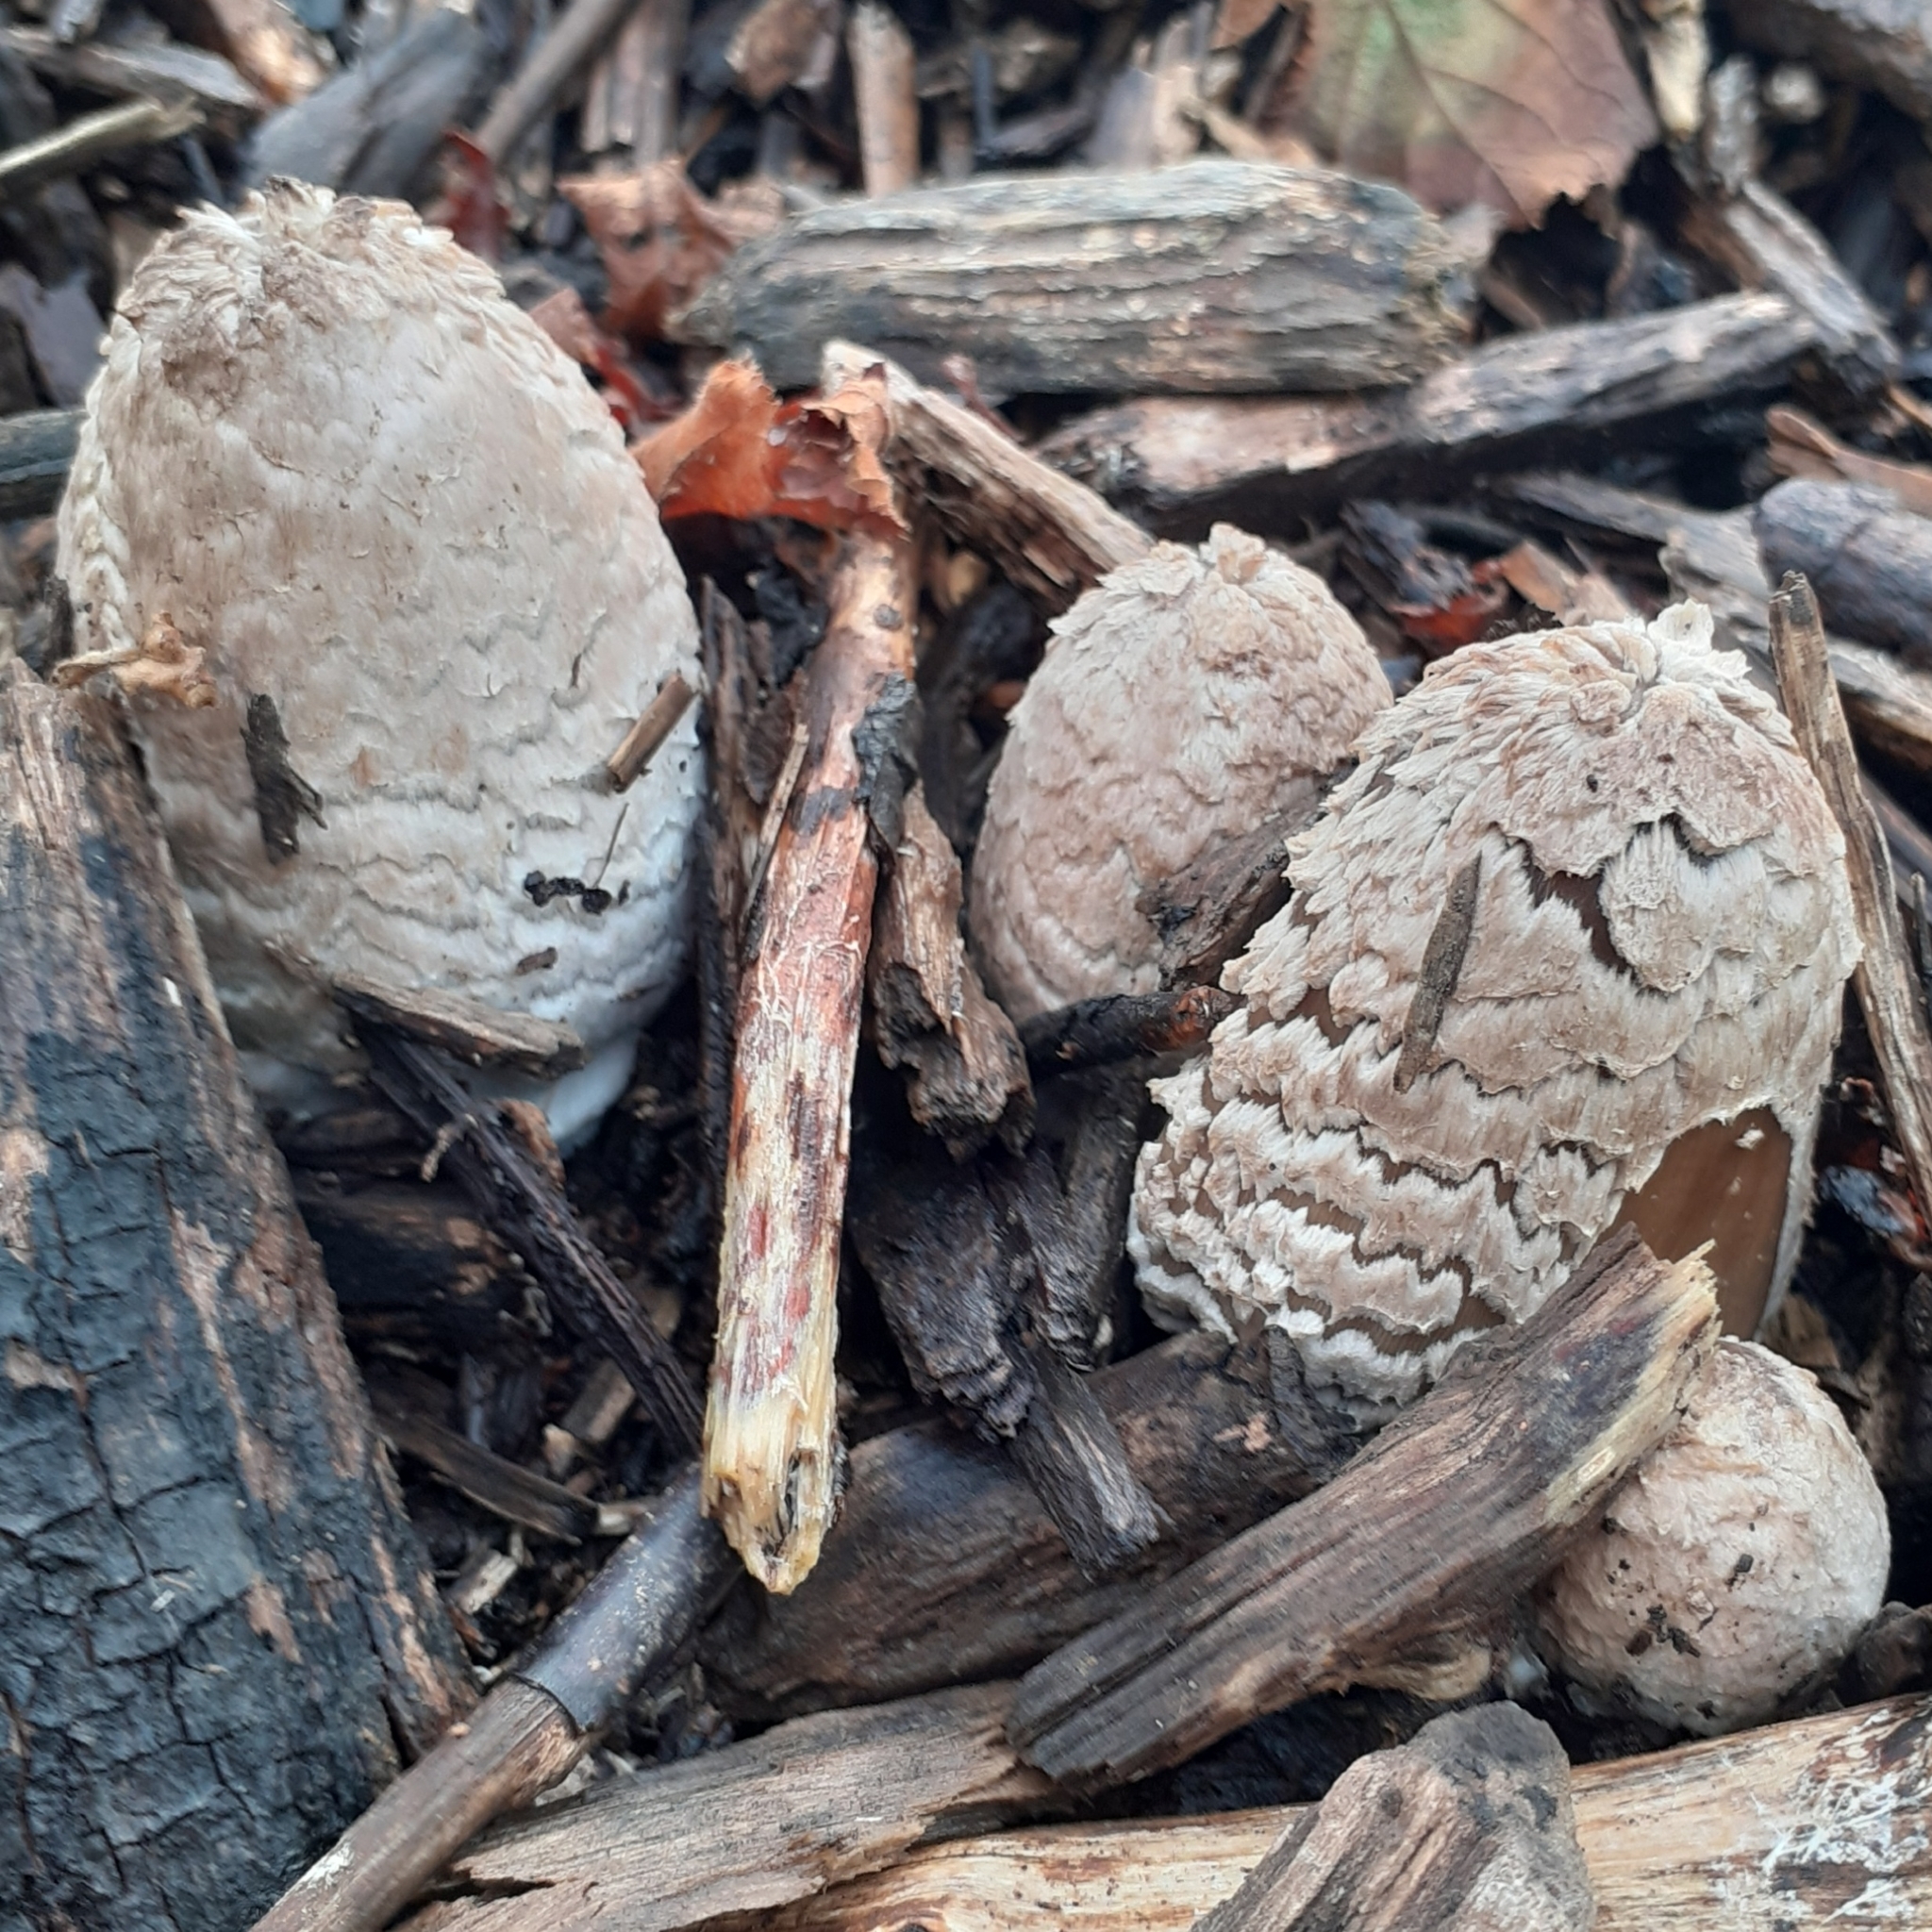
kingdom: Fungi
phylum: Basidiomycota
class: Agaricomycetes
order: Agaricales
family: Psathyrellaceae
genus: Coprinopsis
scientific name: Coprinopsis picacea
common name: Magpie inkcap
